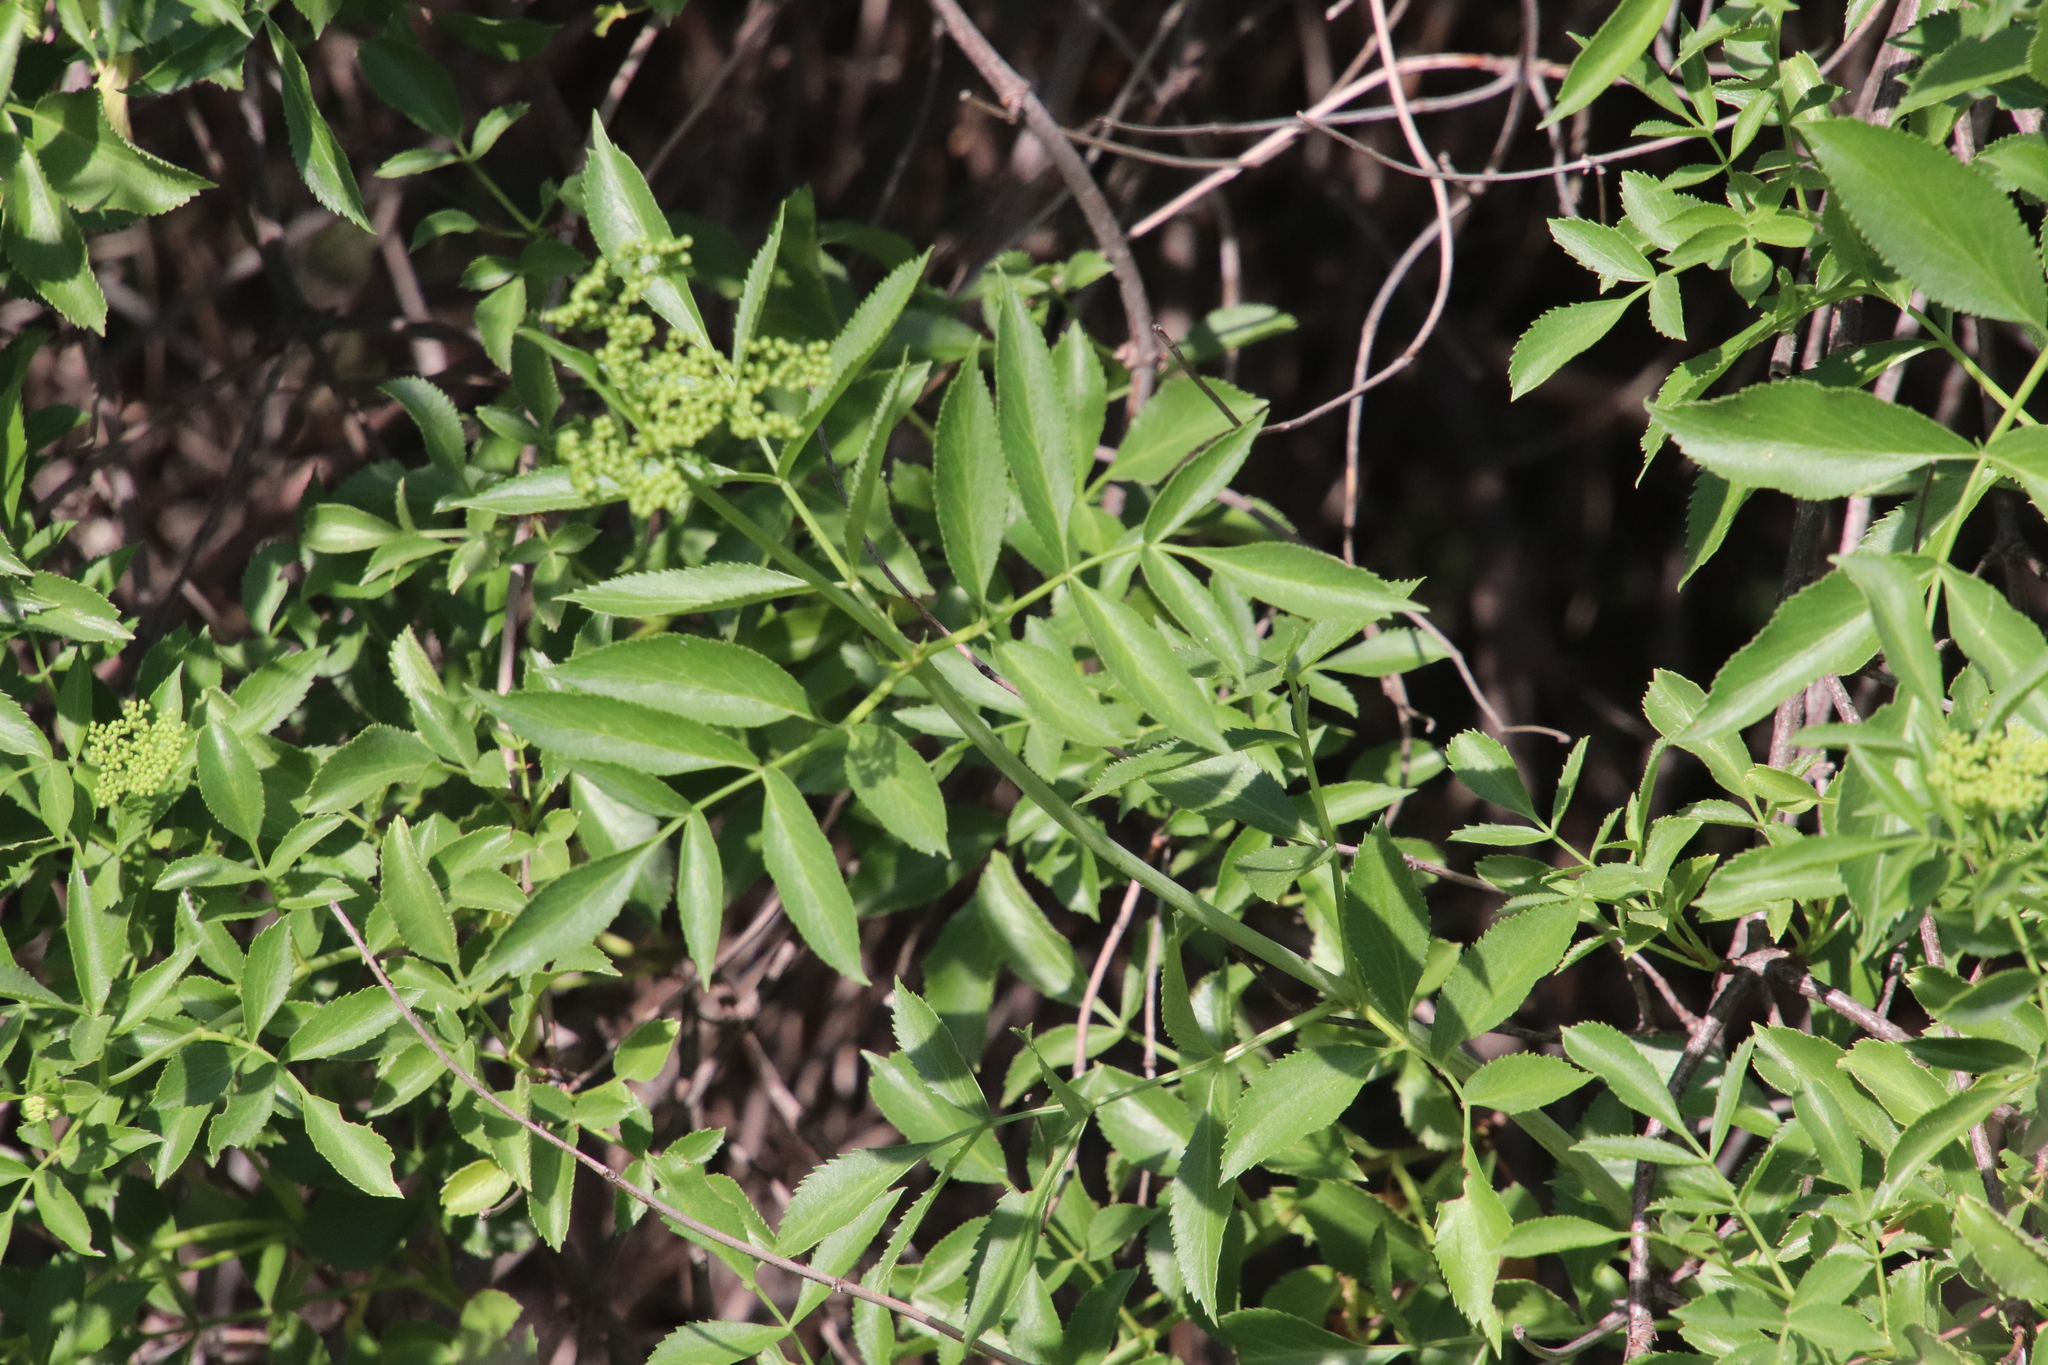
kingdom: Plantae
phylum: Tracheophyta
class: Magnoliopsida
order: Dipsacales
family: Viburnaceae
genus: Sambucus
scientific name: Sambucus cerulea
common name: Blue elder
